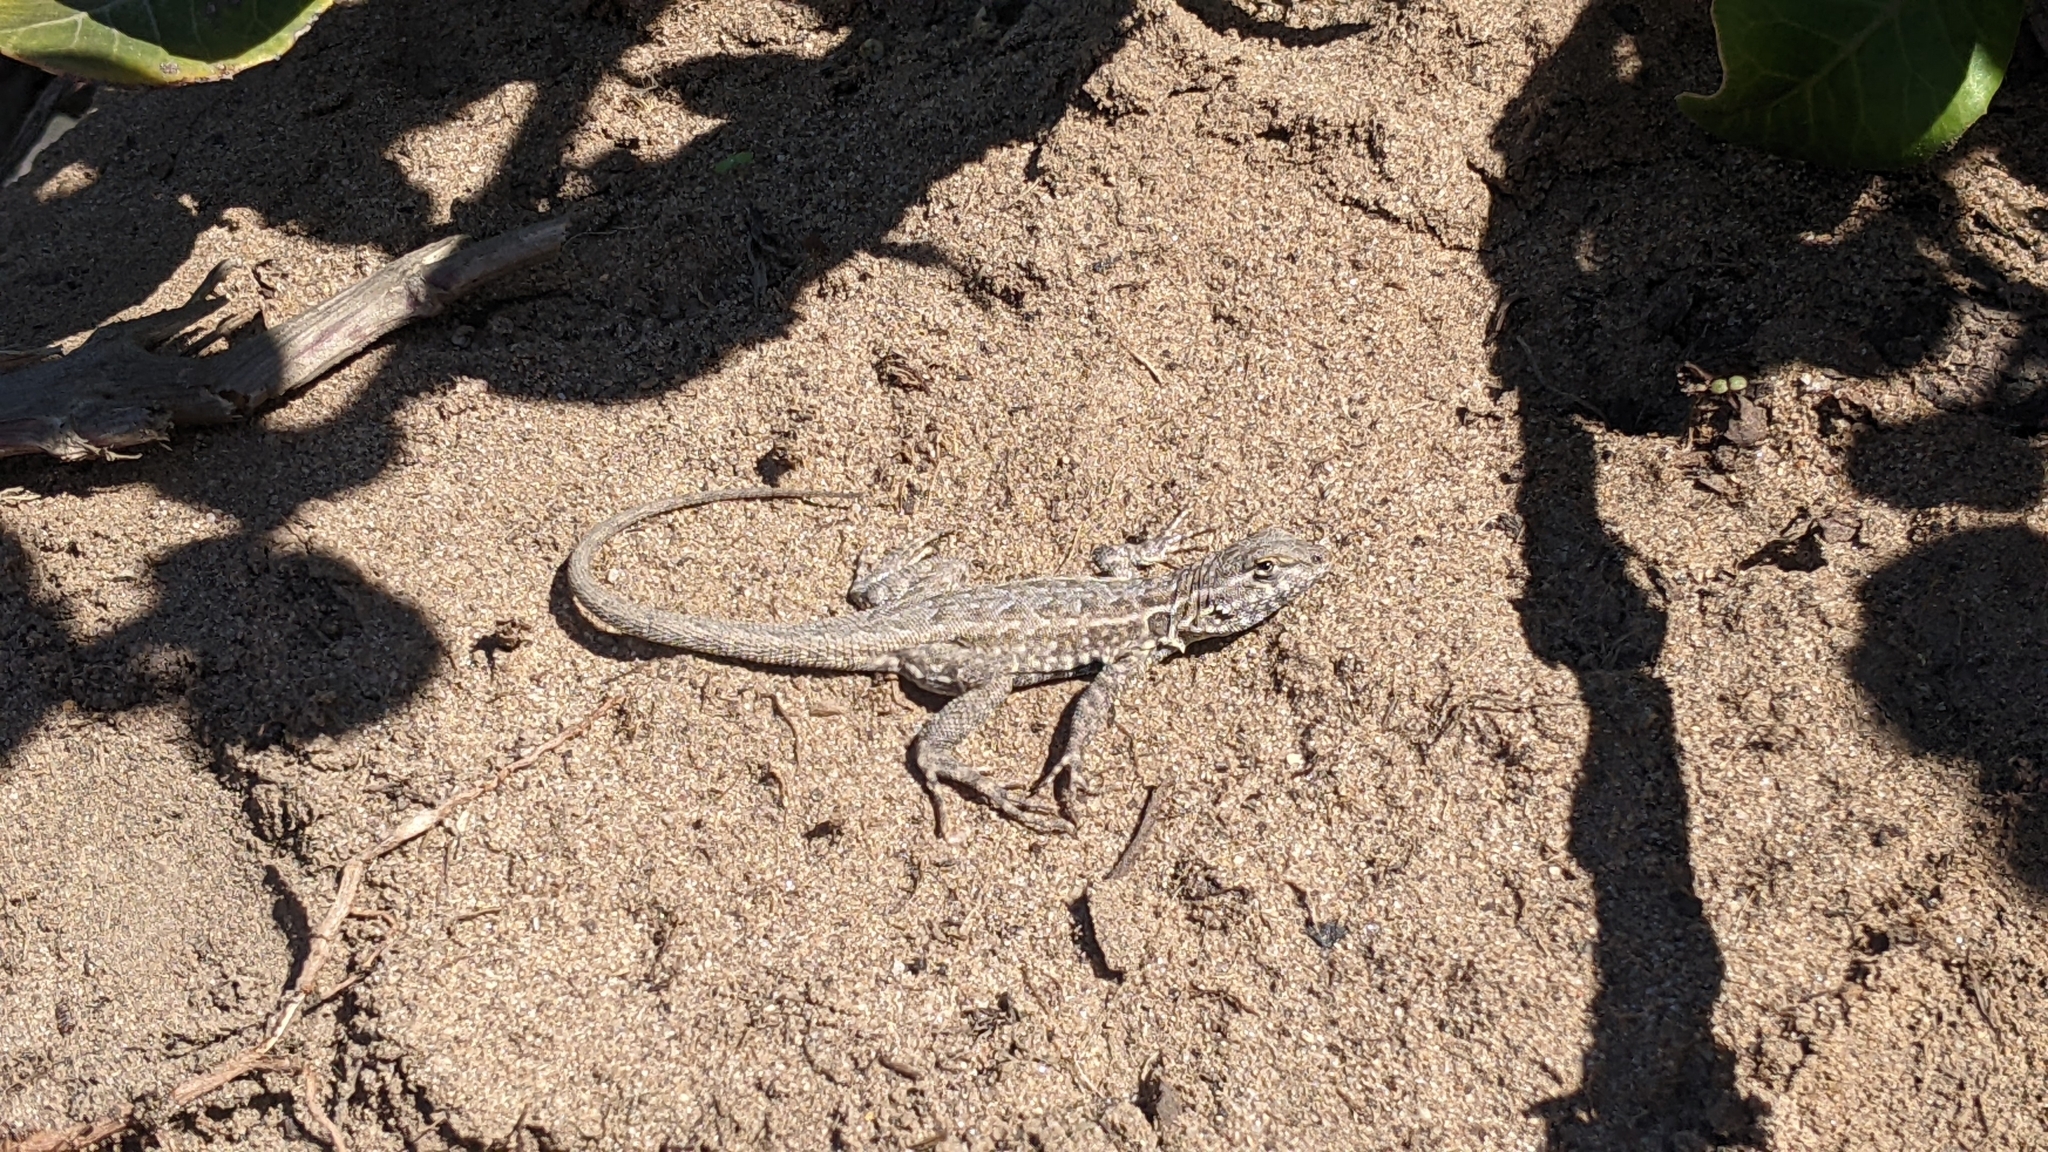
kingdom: Animalia
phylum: Chordata
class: Squamata
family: Phrynosomatidae
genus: Uta
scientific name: Uta stansburiana
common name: Side-blotched lizard
